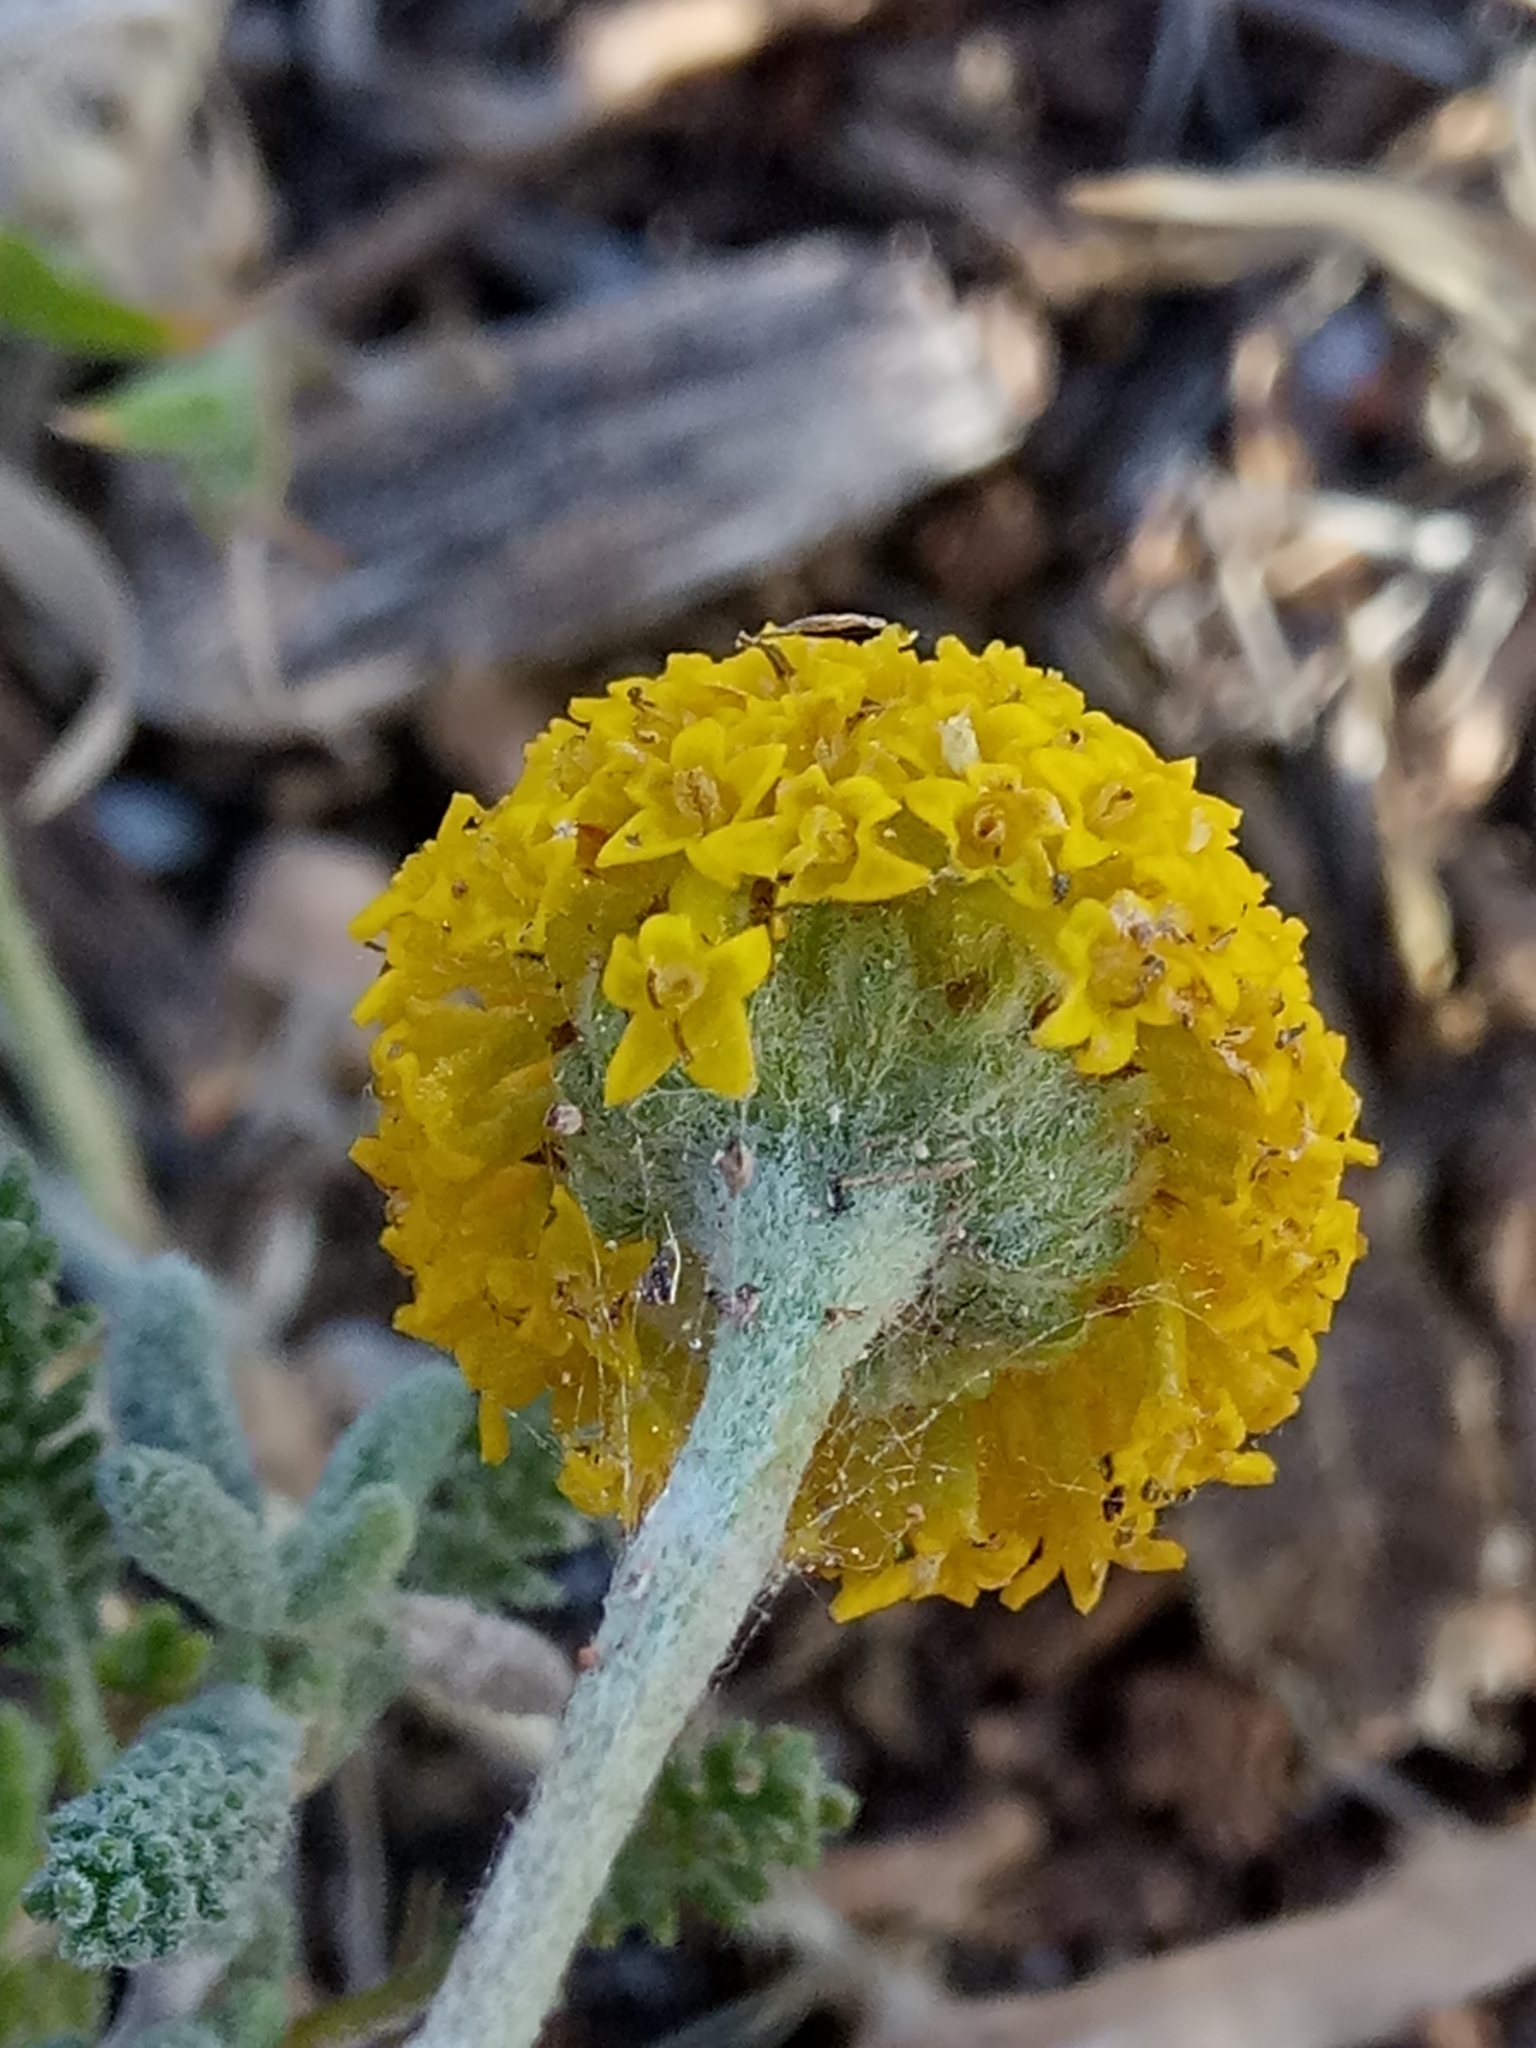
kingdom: Plantae
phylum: Tracheophyta
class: Magnoliopsida
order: Asterales
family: Asteraceae
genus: Santolina
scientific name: Santolina africana
